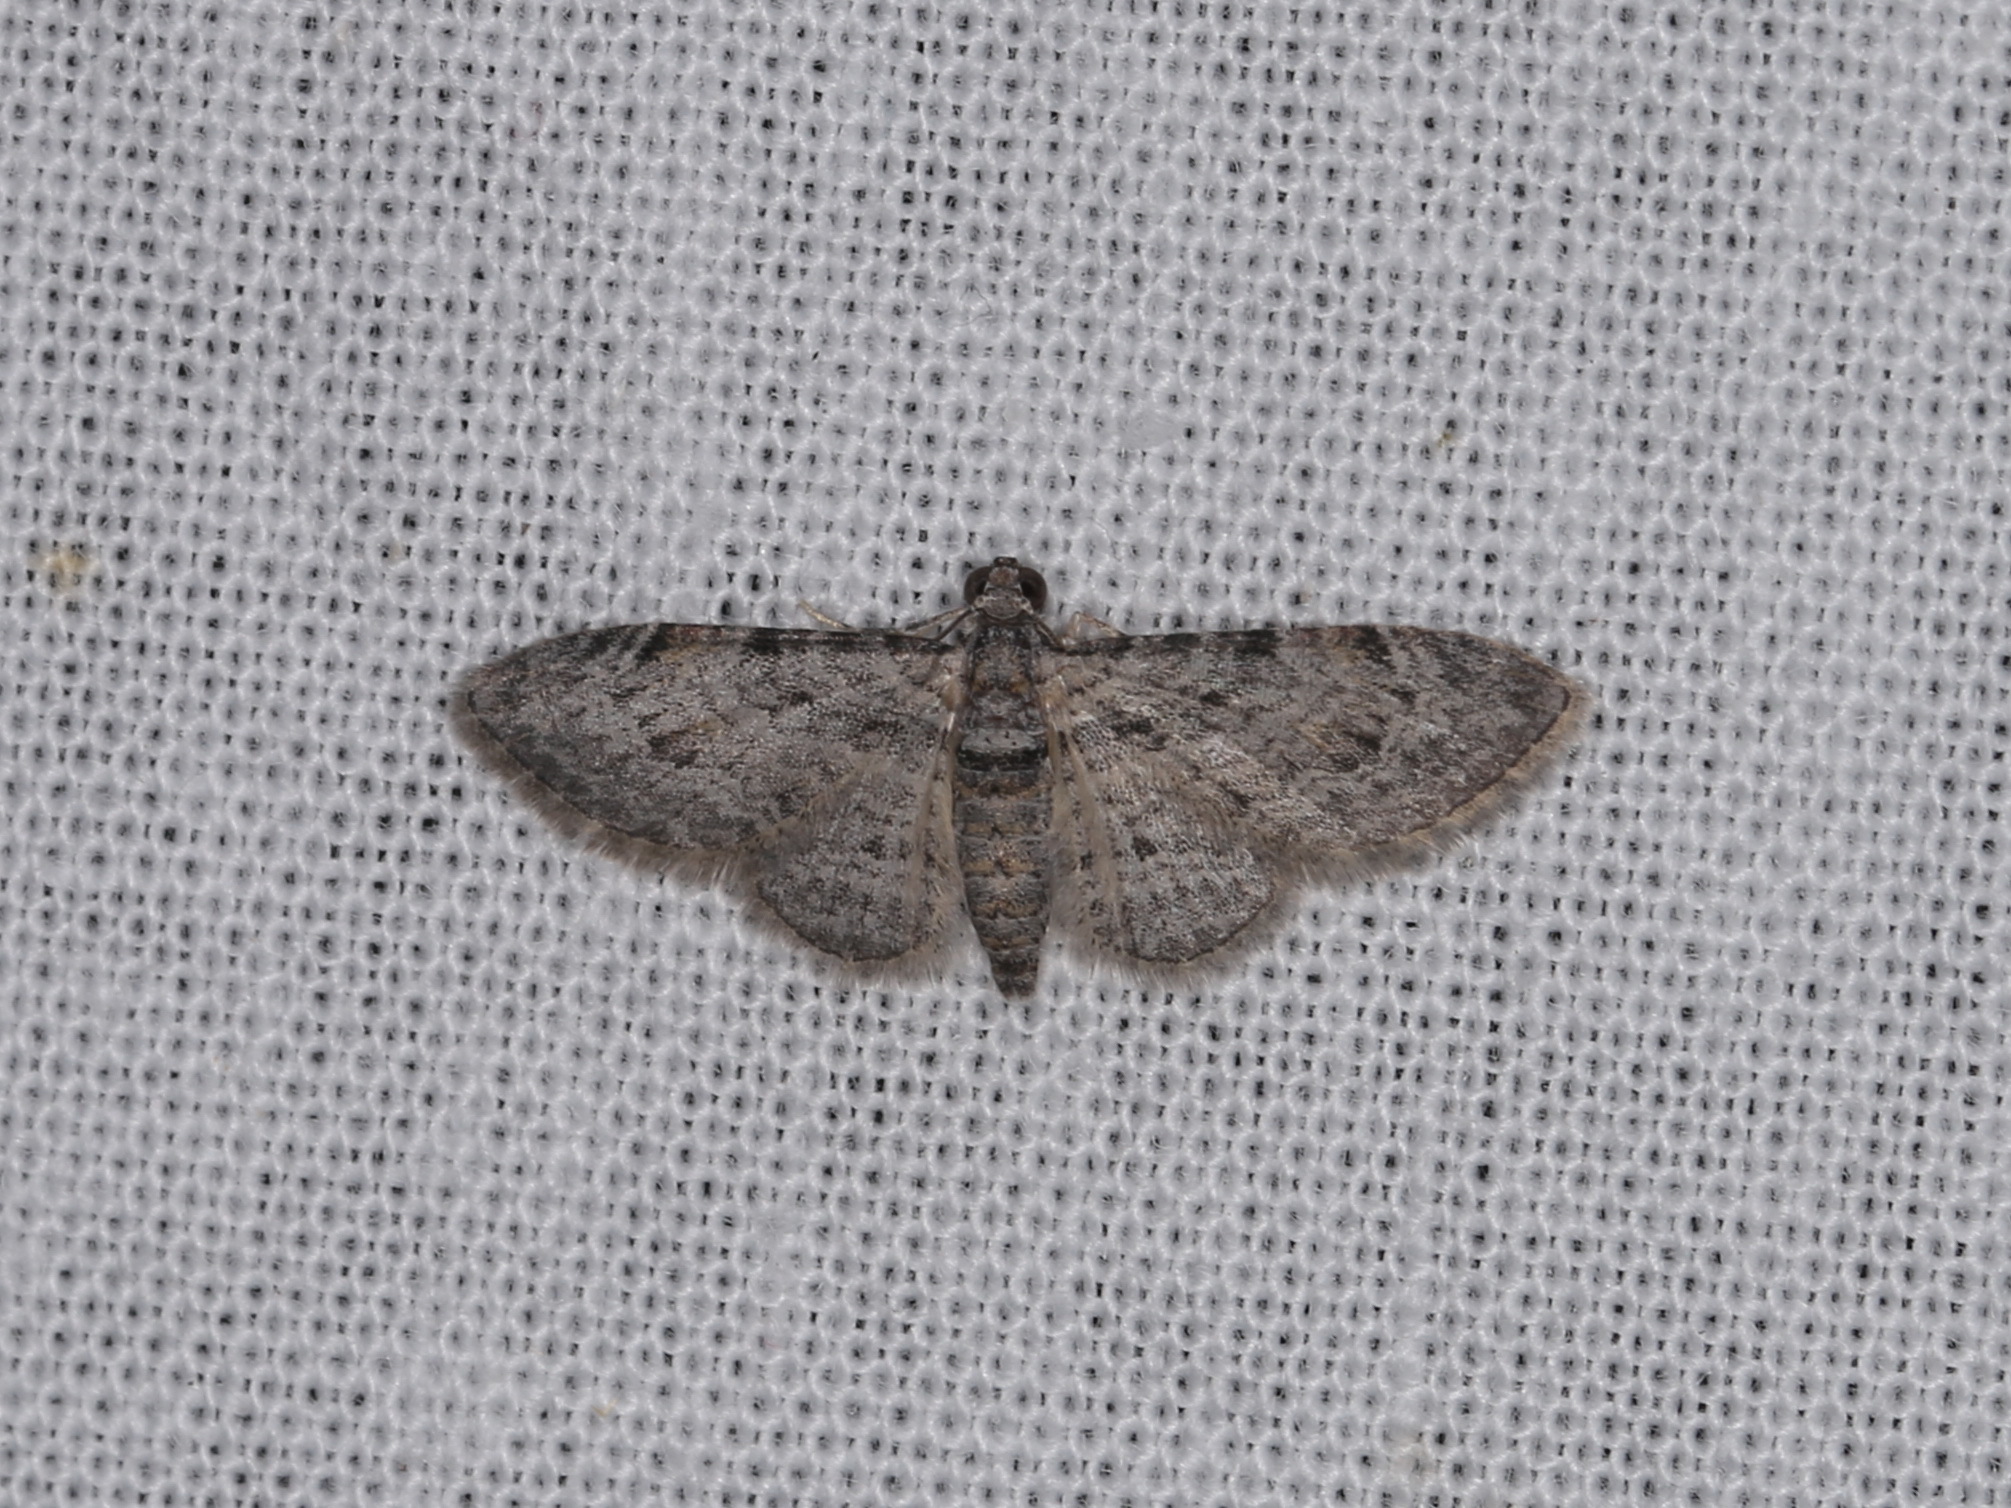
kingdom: Animalia
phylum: Arthropoda
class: Insecta
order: Lepidoptera
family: Geometridae
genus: Chloroclystis
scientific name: Chloroclystis insigillata
